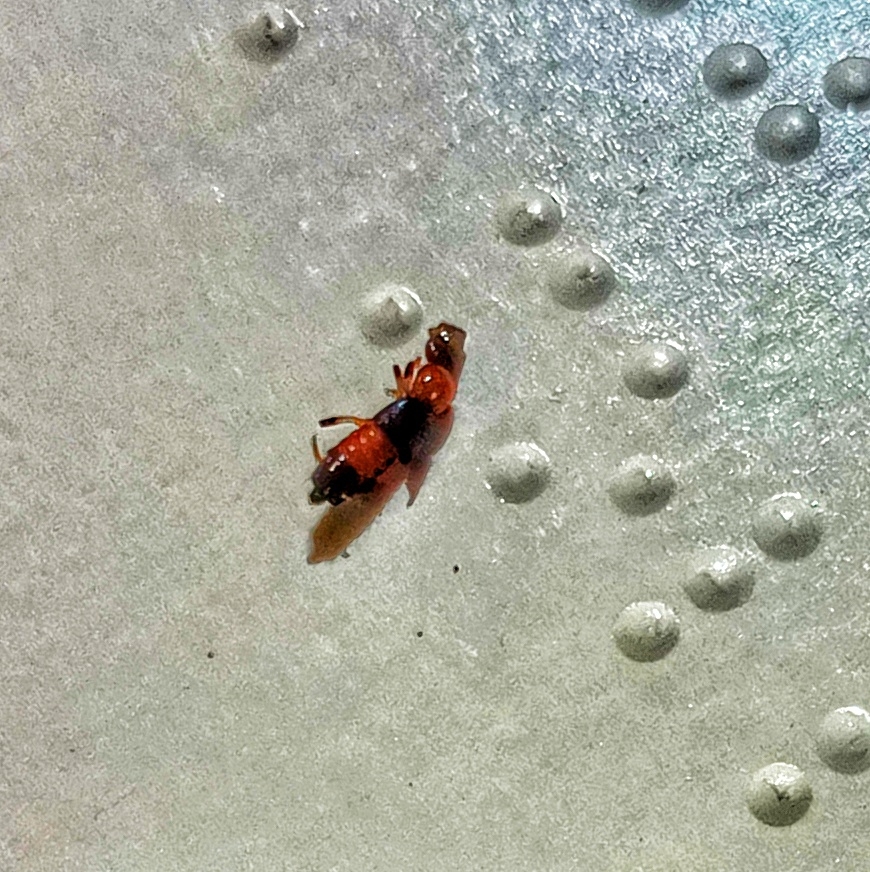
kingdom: Animalia
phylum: Arthropoda
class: Insecta
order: Coleoptera
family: Staphylinidae
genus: Paederus
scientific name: Paederus littoralis
